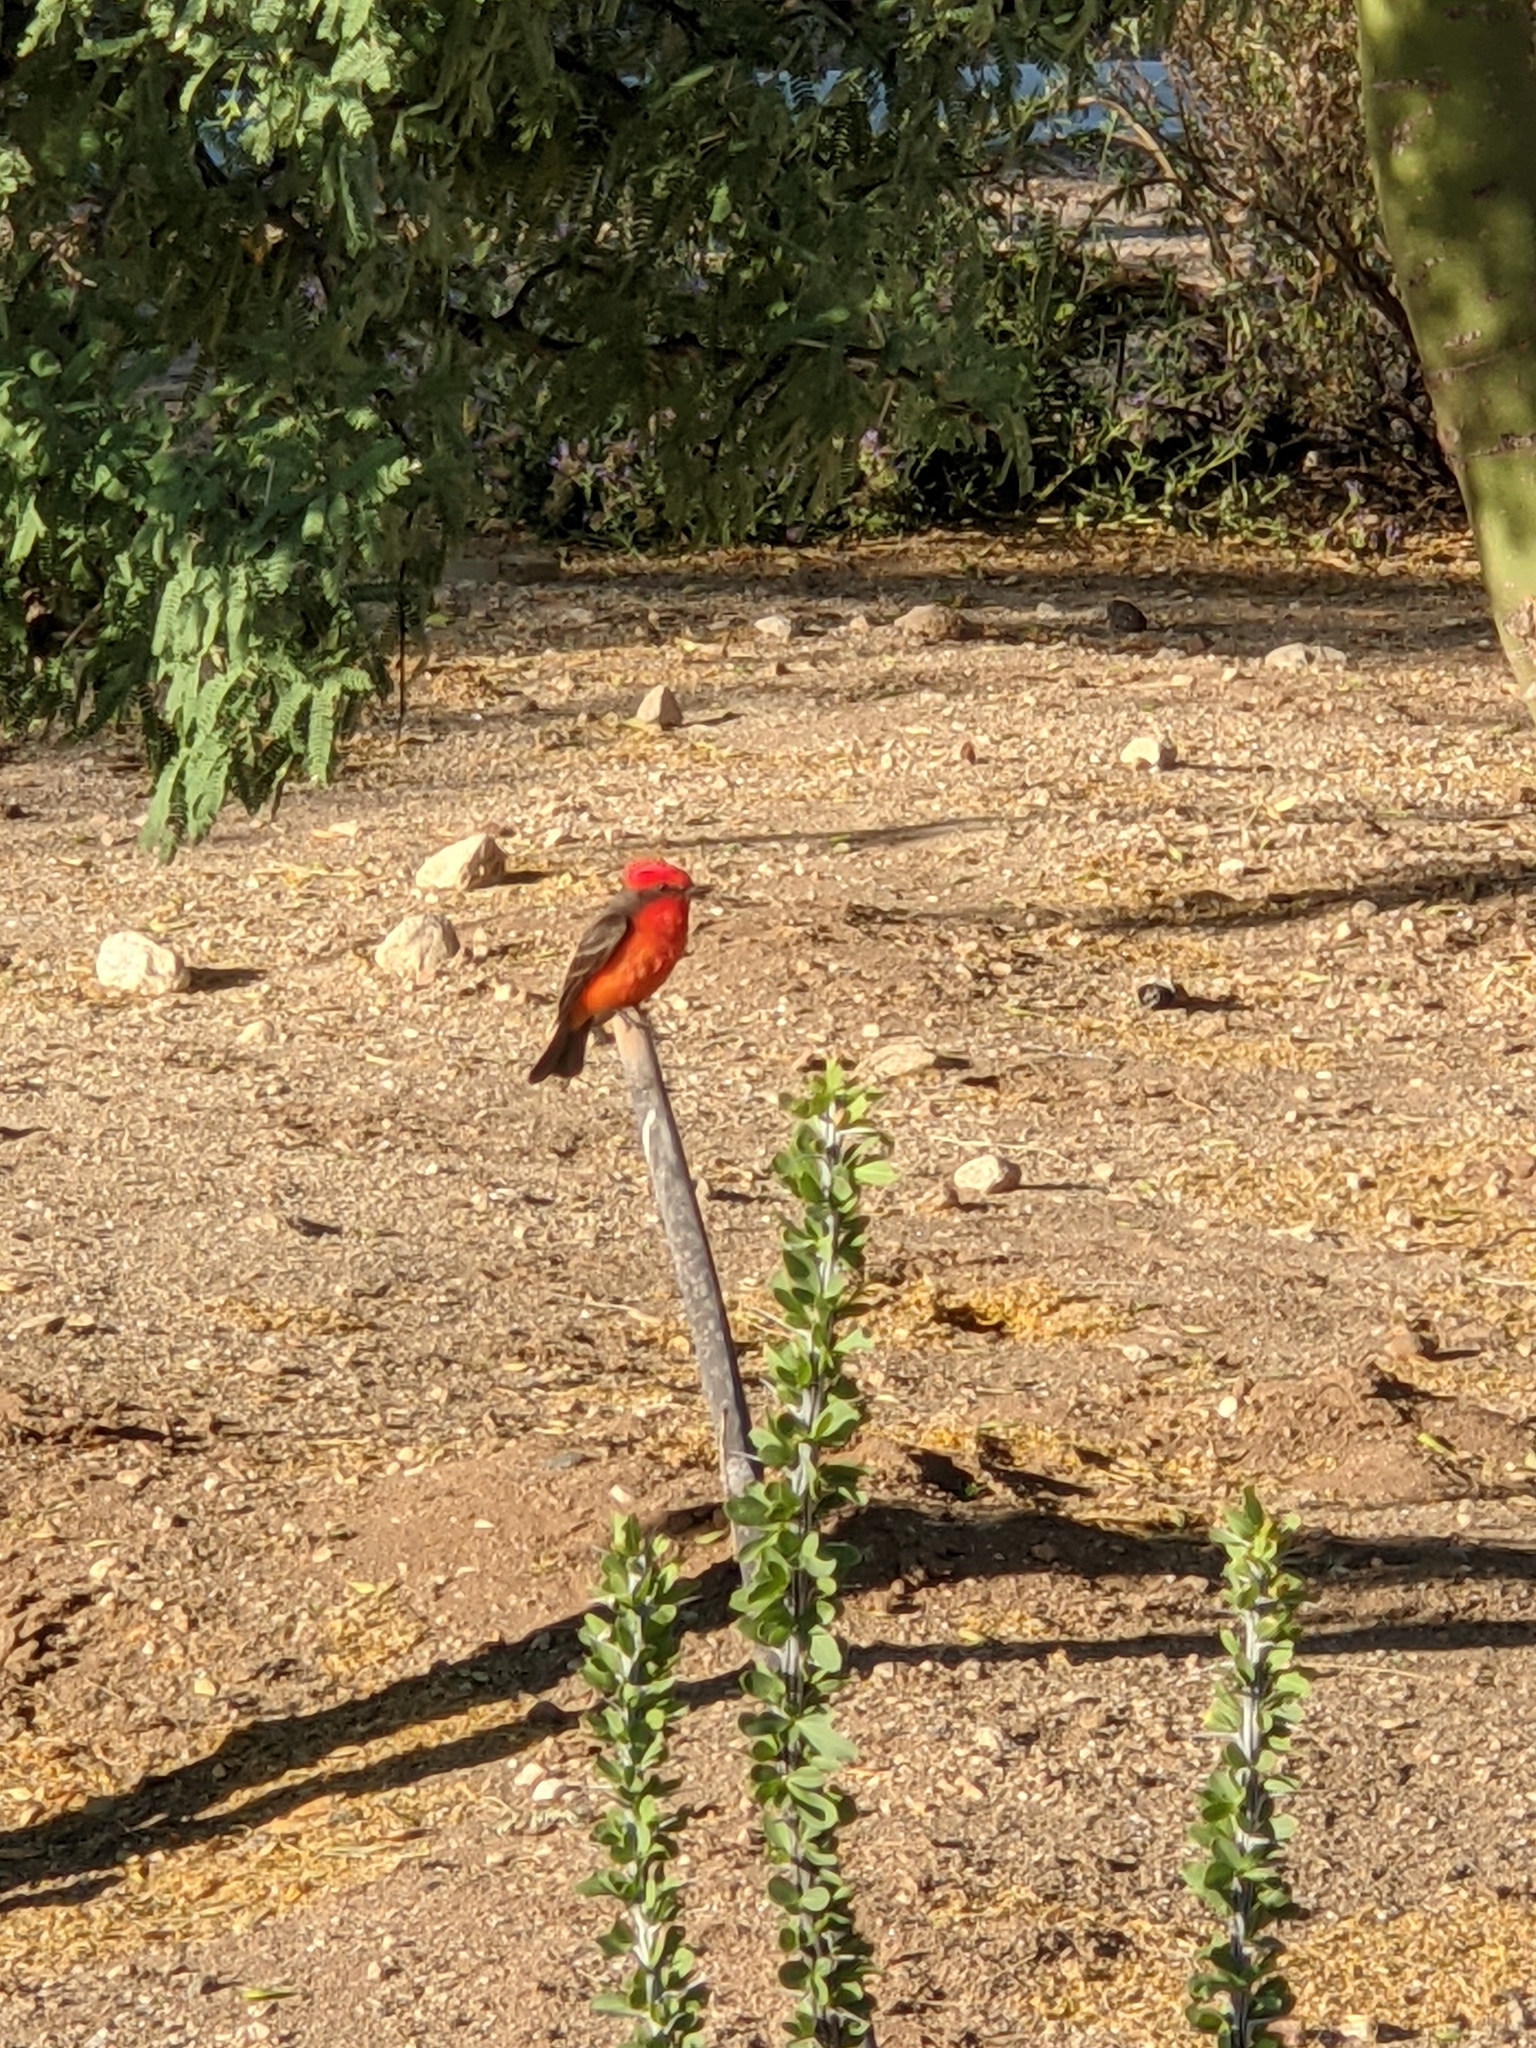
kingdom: Animalia
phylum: Chordata
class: Aves
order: Passeriformes
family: Tyrannidae
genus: Pyrocephalus
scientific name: Pyrocephalus rubinus
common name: Vermilion flycatcher
